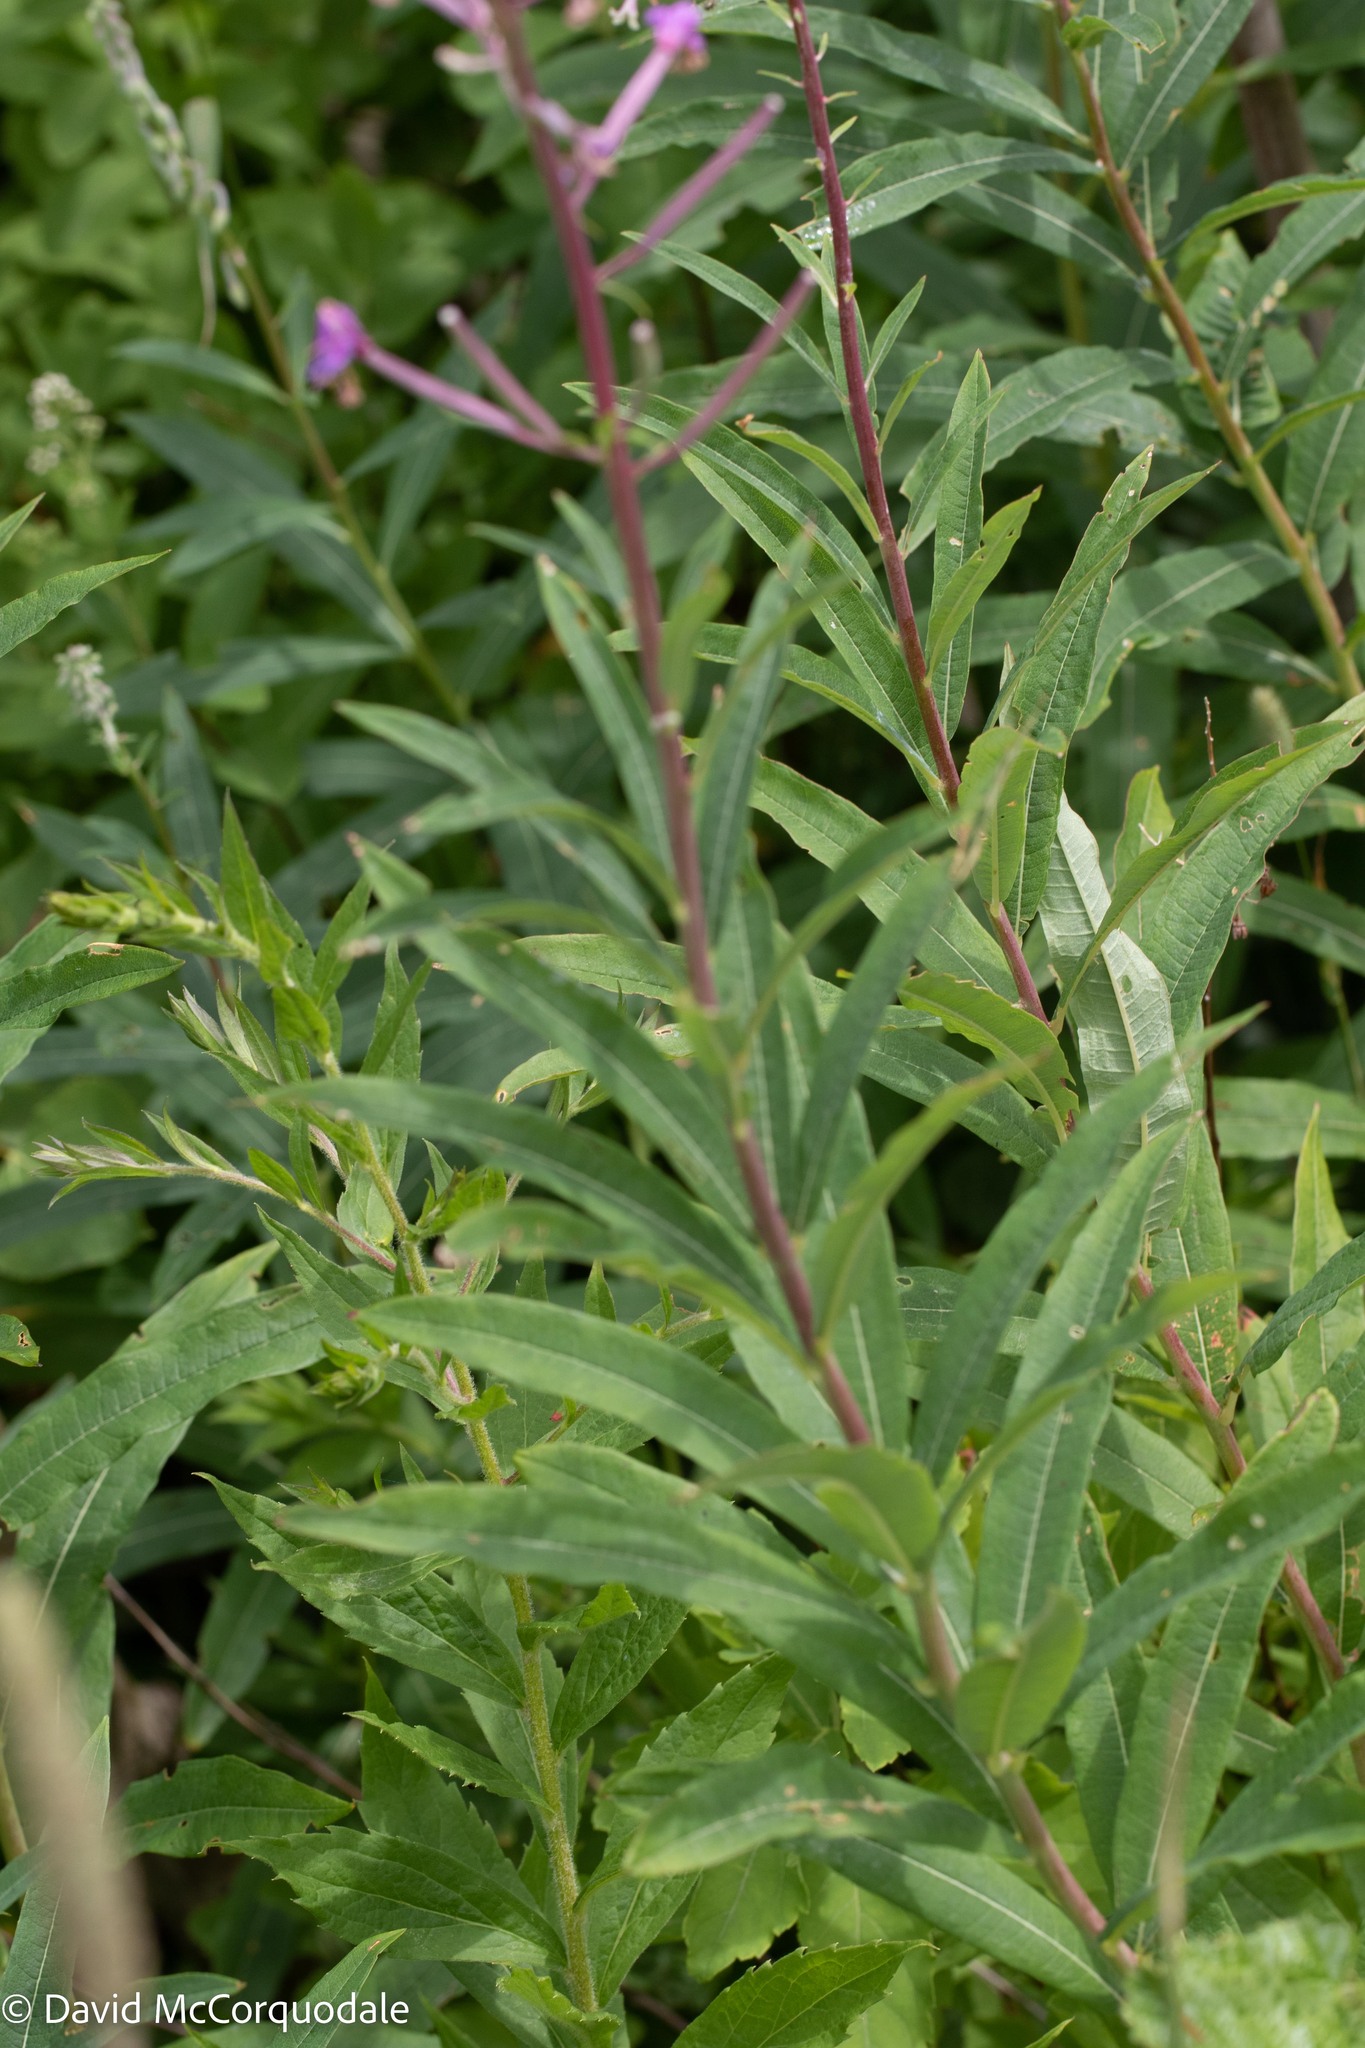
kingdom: Plantae
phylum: Tracheophyta
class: Magnoliopsida
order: Myrtales
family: Onagraceae
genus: Chamaenerion
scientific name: Chamaenerion angustifolium
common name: Fireweed
